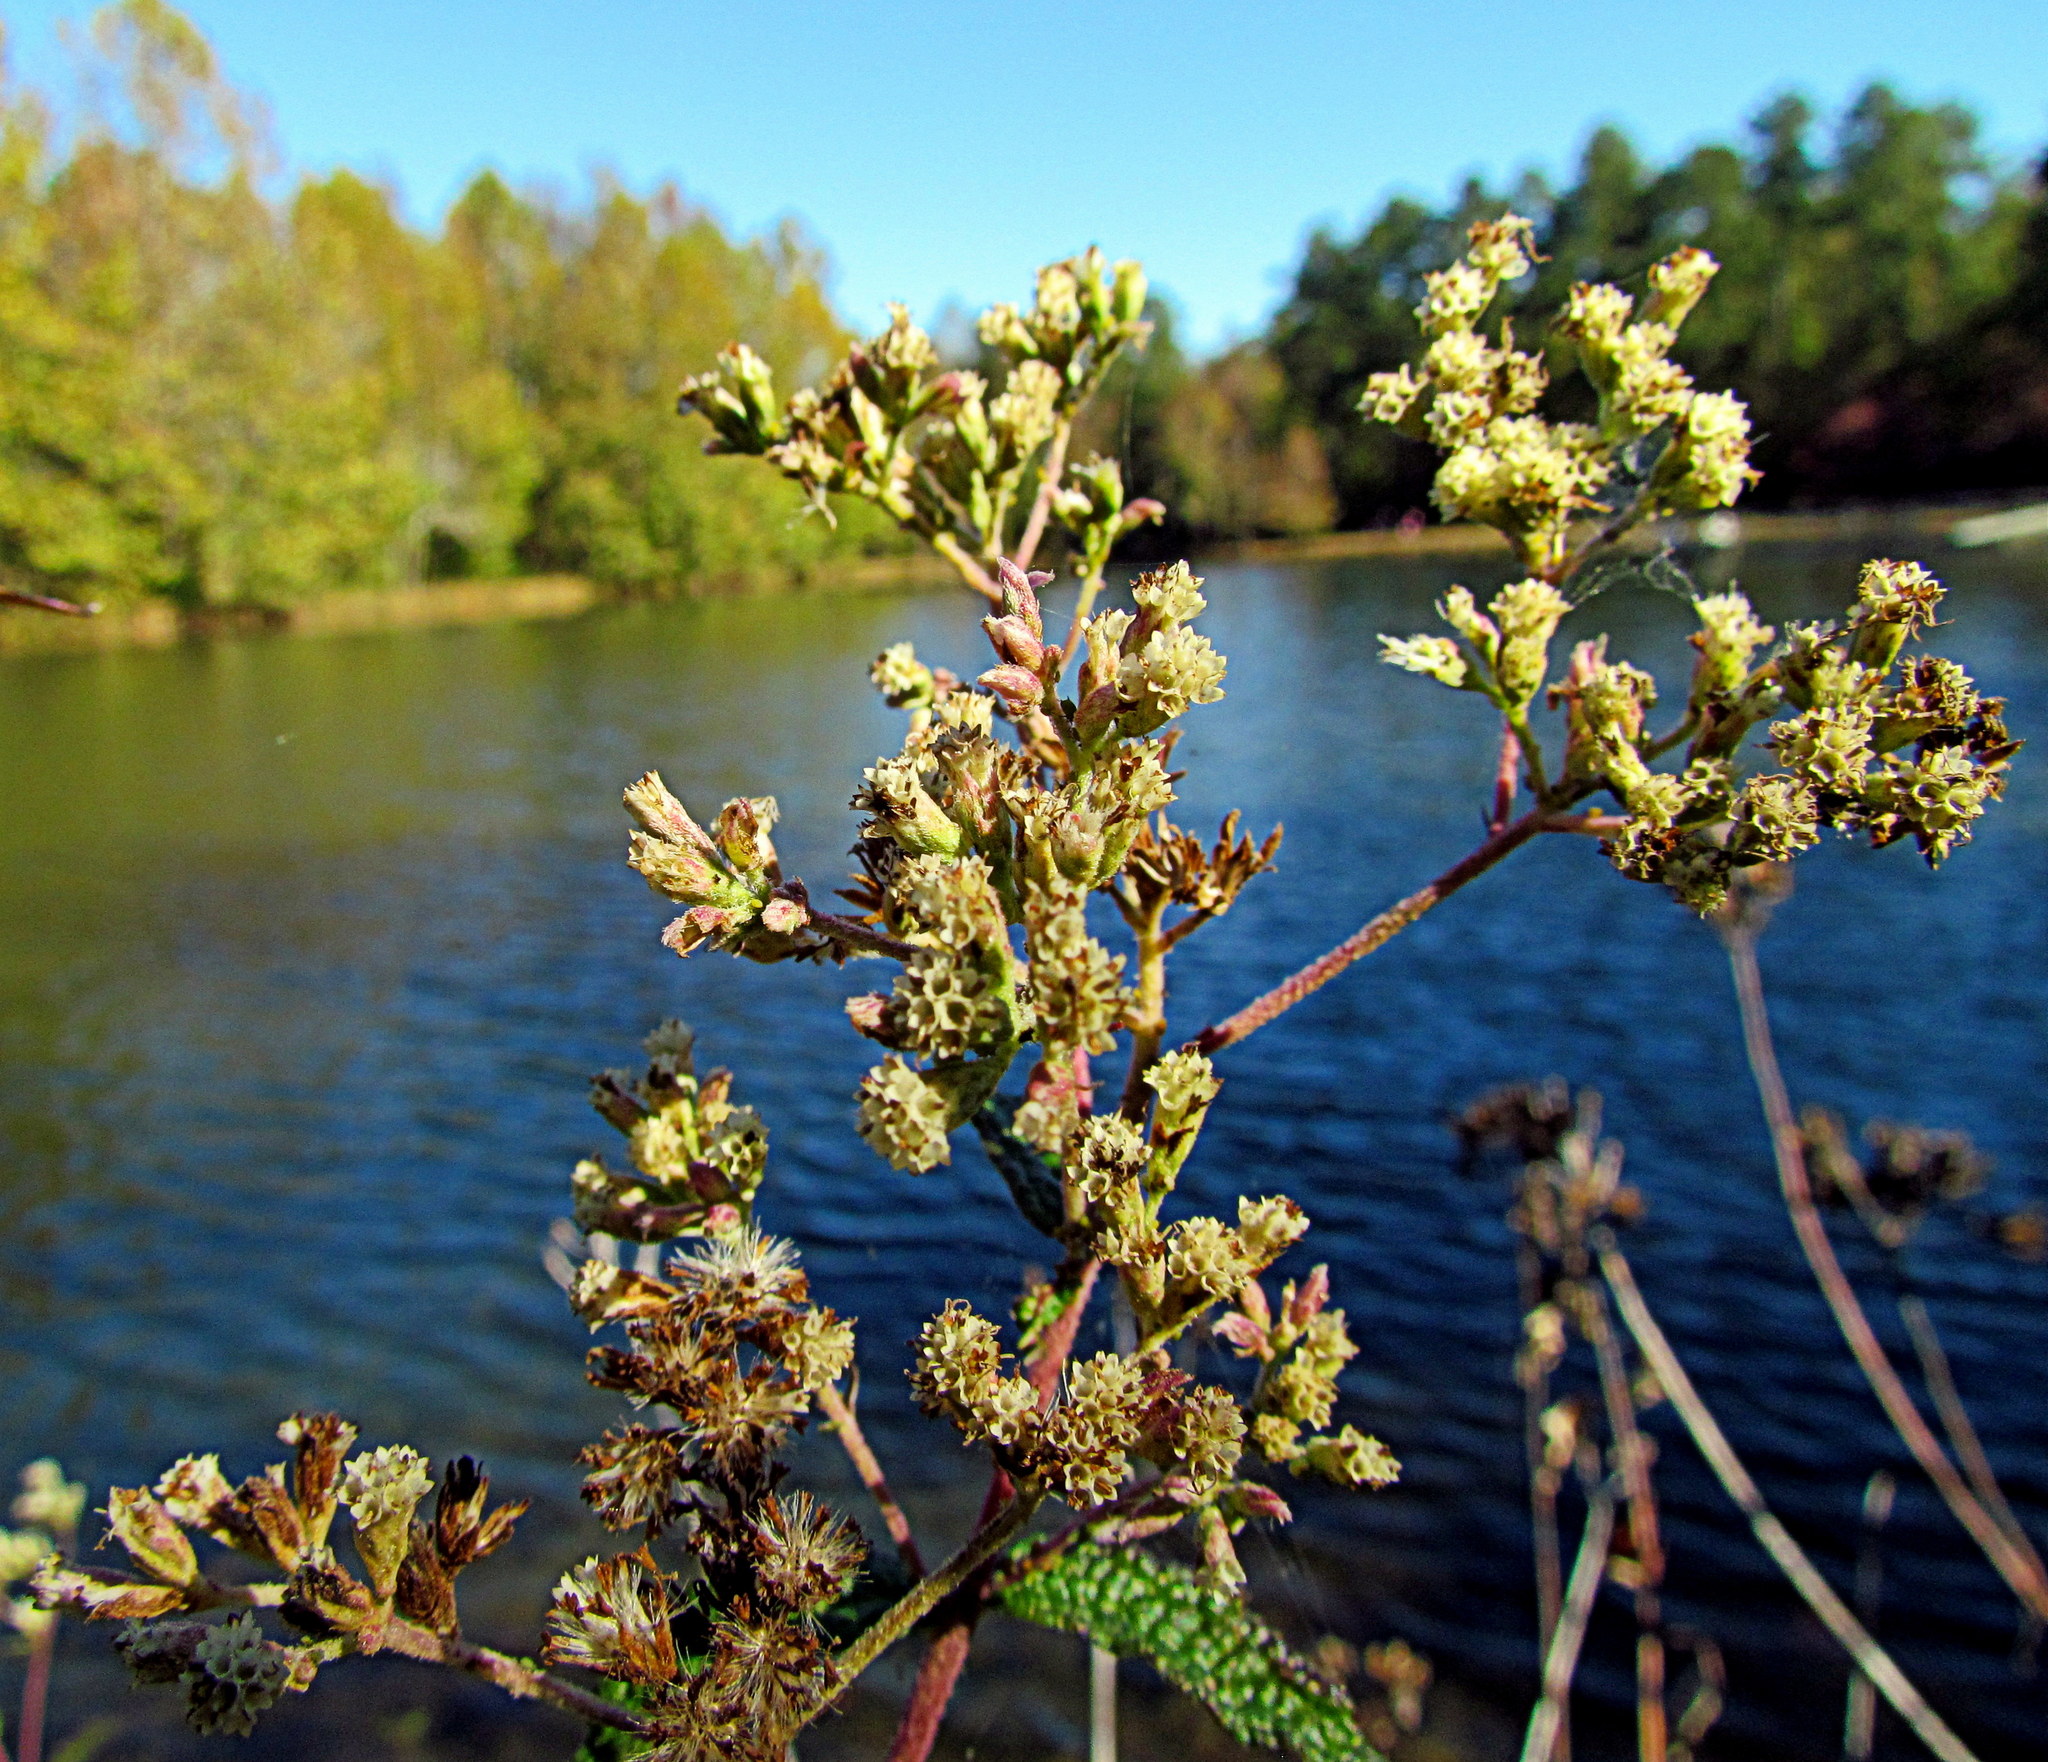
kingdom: Plantae
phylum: Tracheophyta
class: Magnoliopsida
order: Asterales
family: Asteraceae
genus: Eupatorium
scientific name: Eupatorium perfoliatum
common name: Boneset
